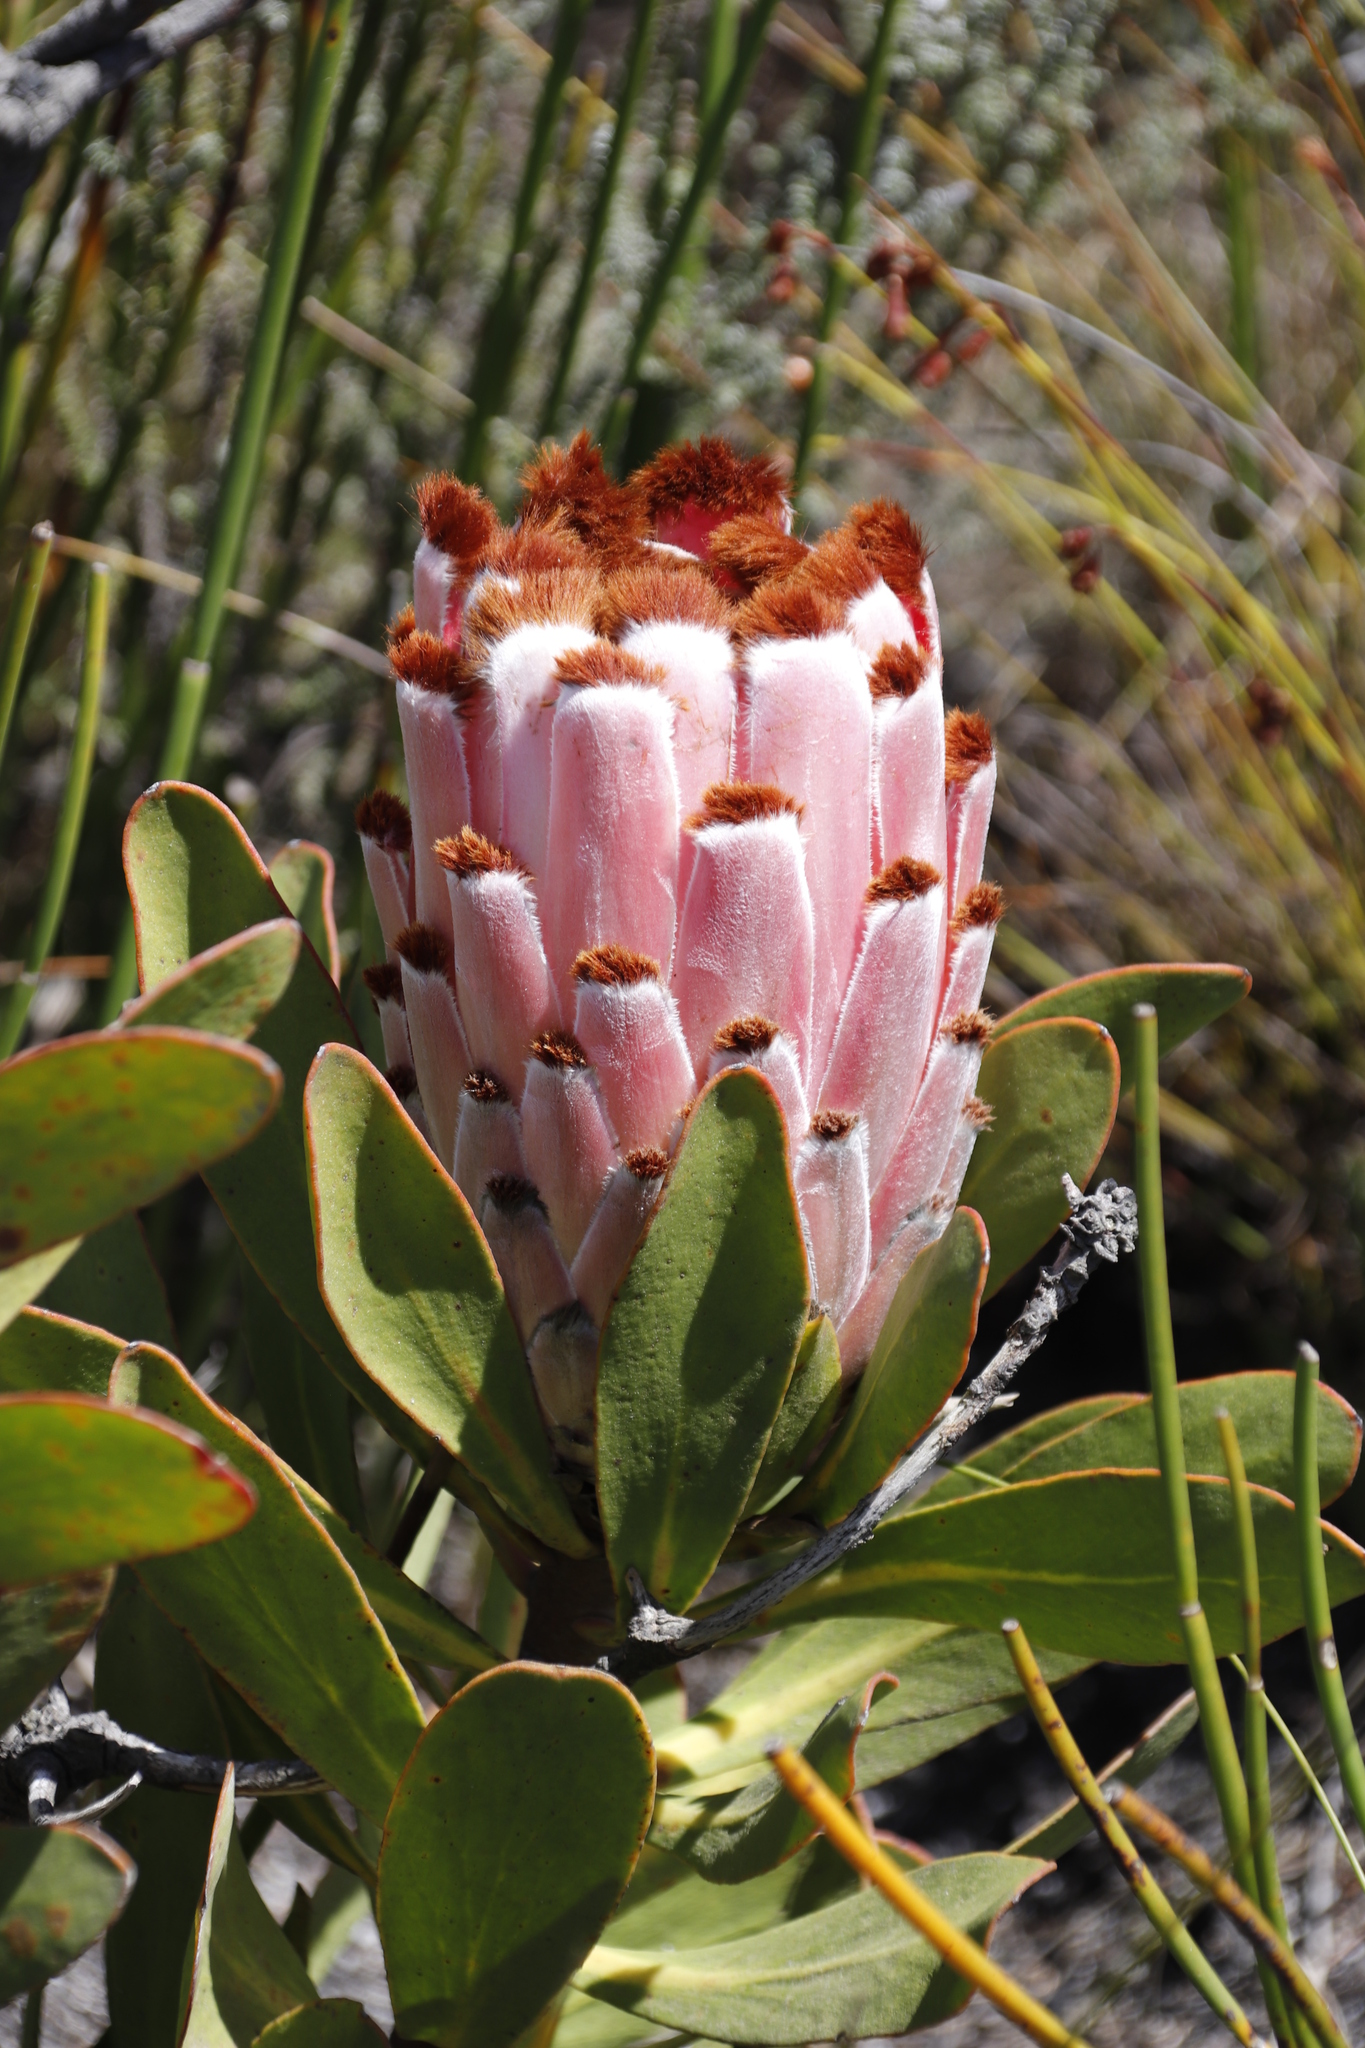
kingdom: Plantae
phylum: Tracheophyta
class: Magnoliopsida
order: Proteales
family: Proteaceae
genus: Protea
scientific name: Protea speciosa
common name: Brown-beard sugarbush
